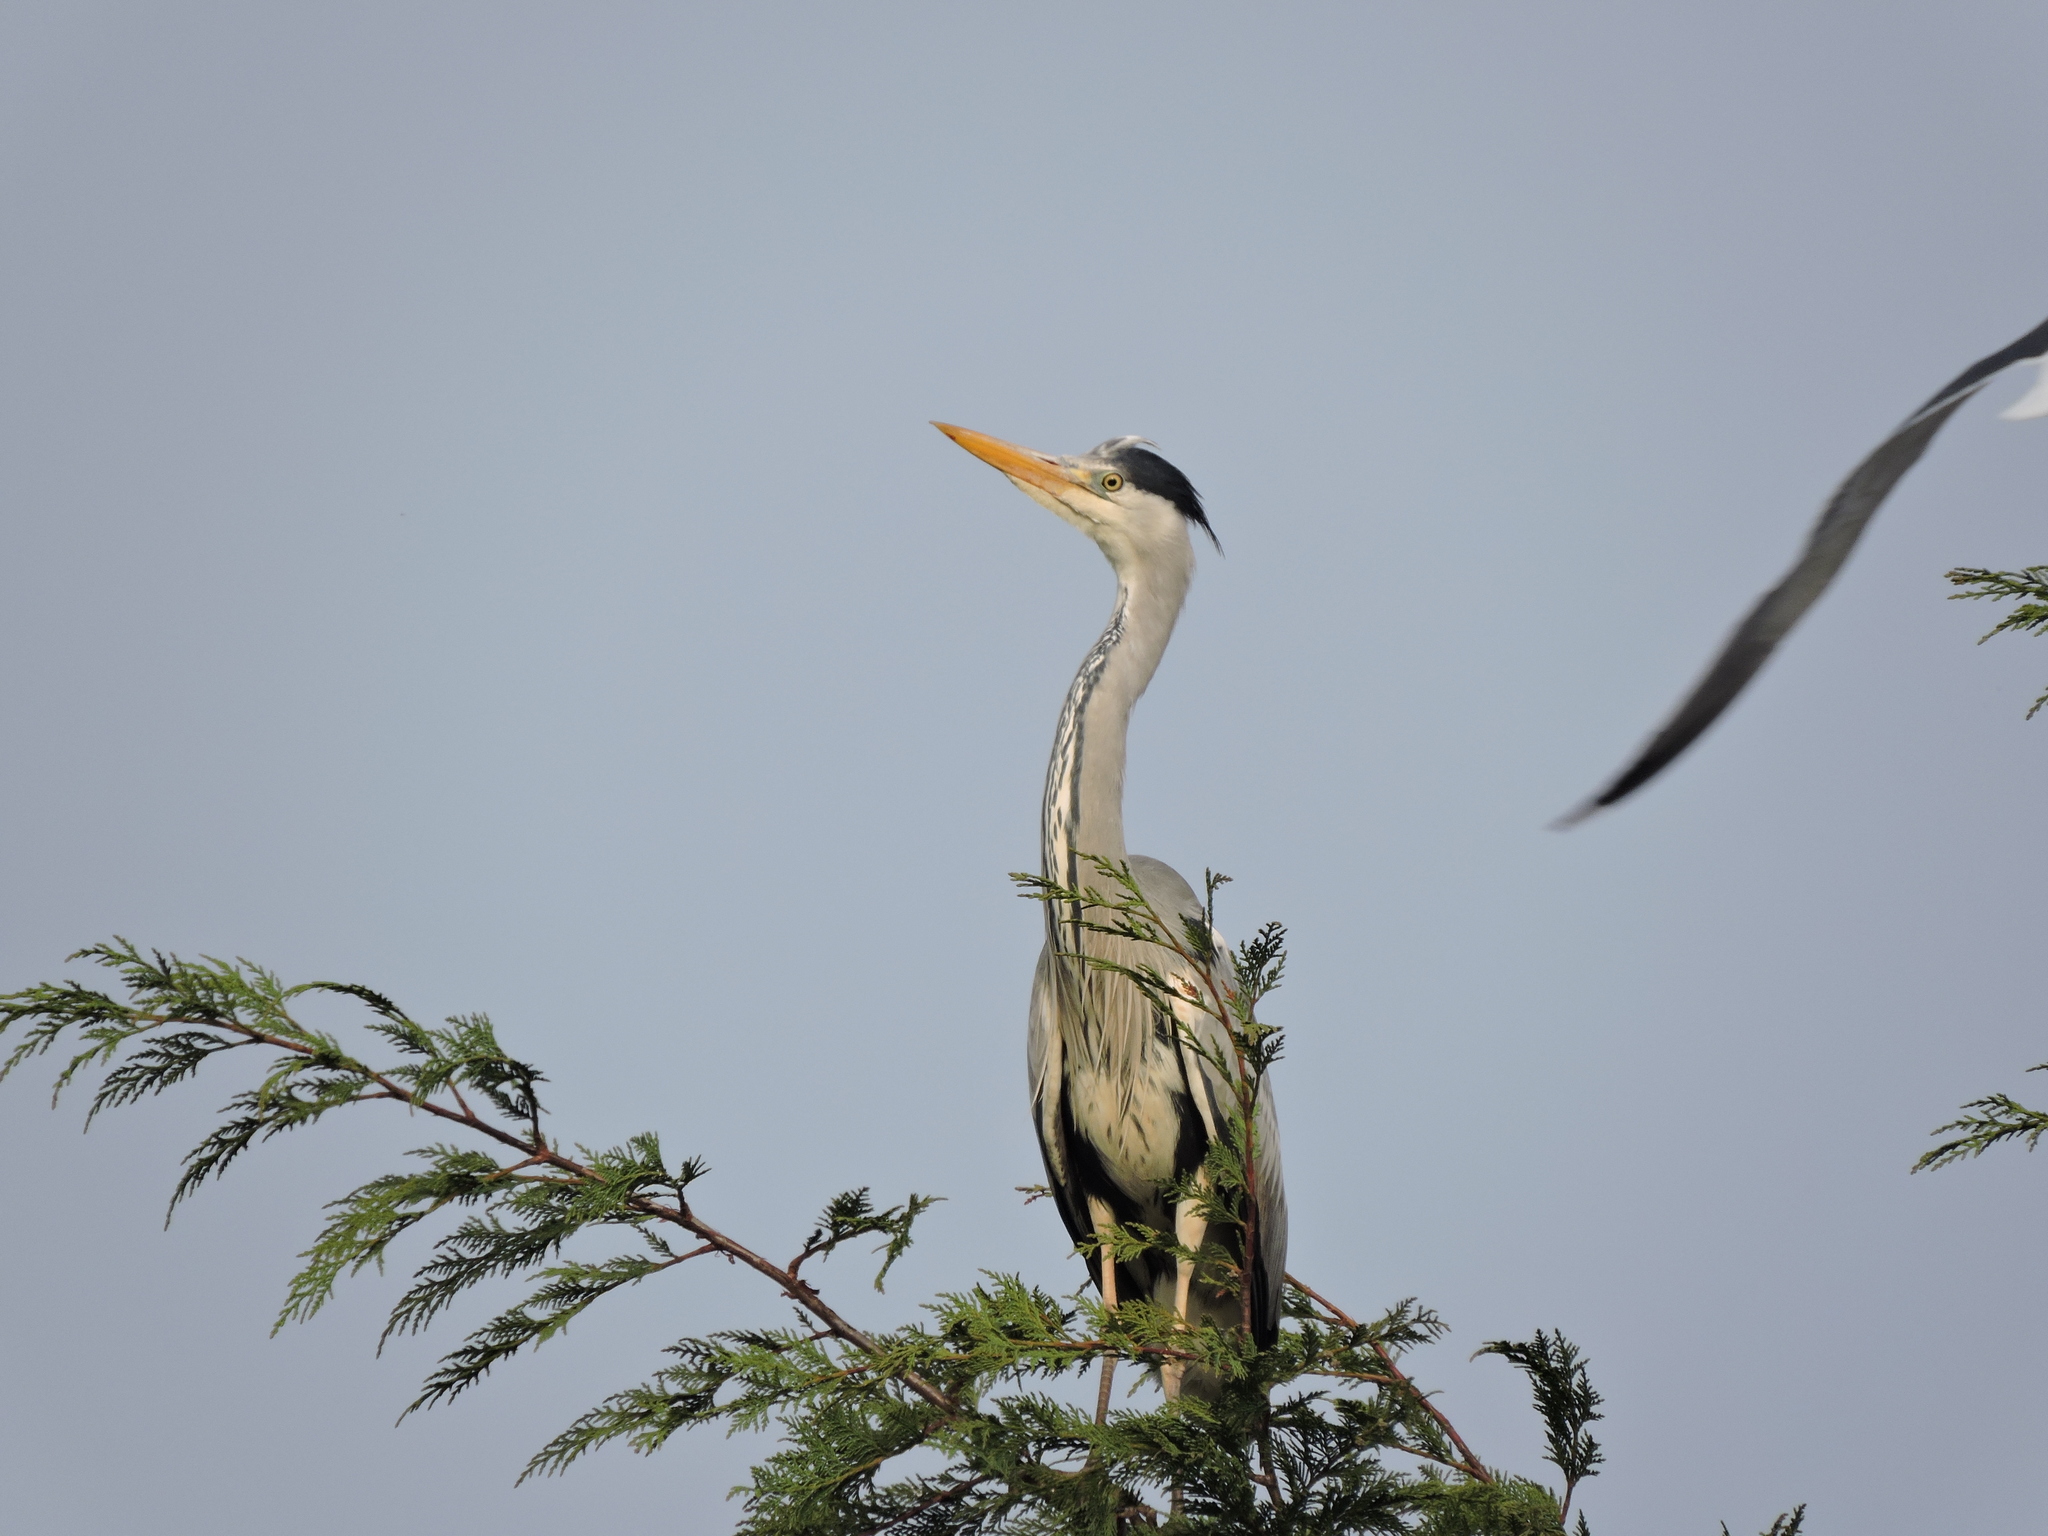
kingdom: Animalia
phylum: Chordata
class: Aves
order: Pelecaniformes
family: Ardeidae
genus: Ardea
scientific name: Ardea cinerea
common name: Grey heron
